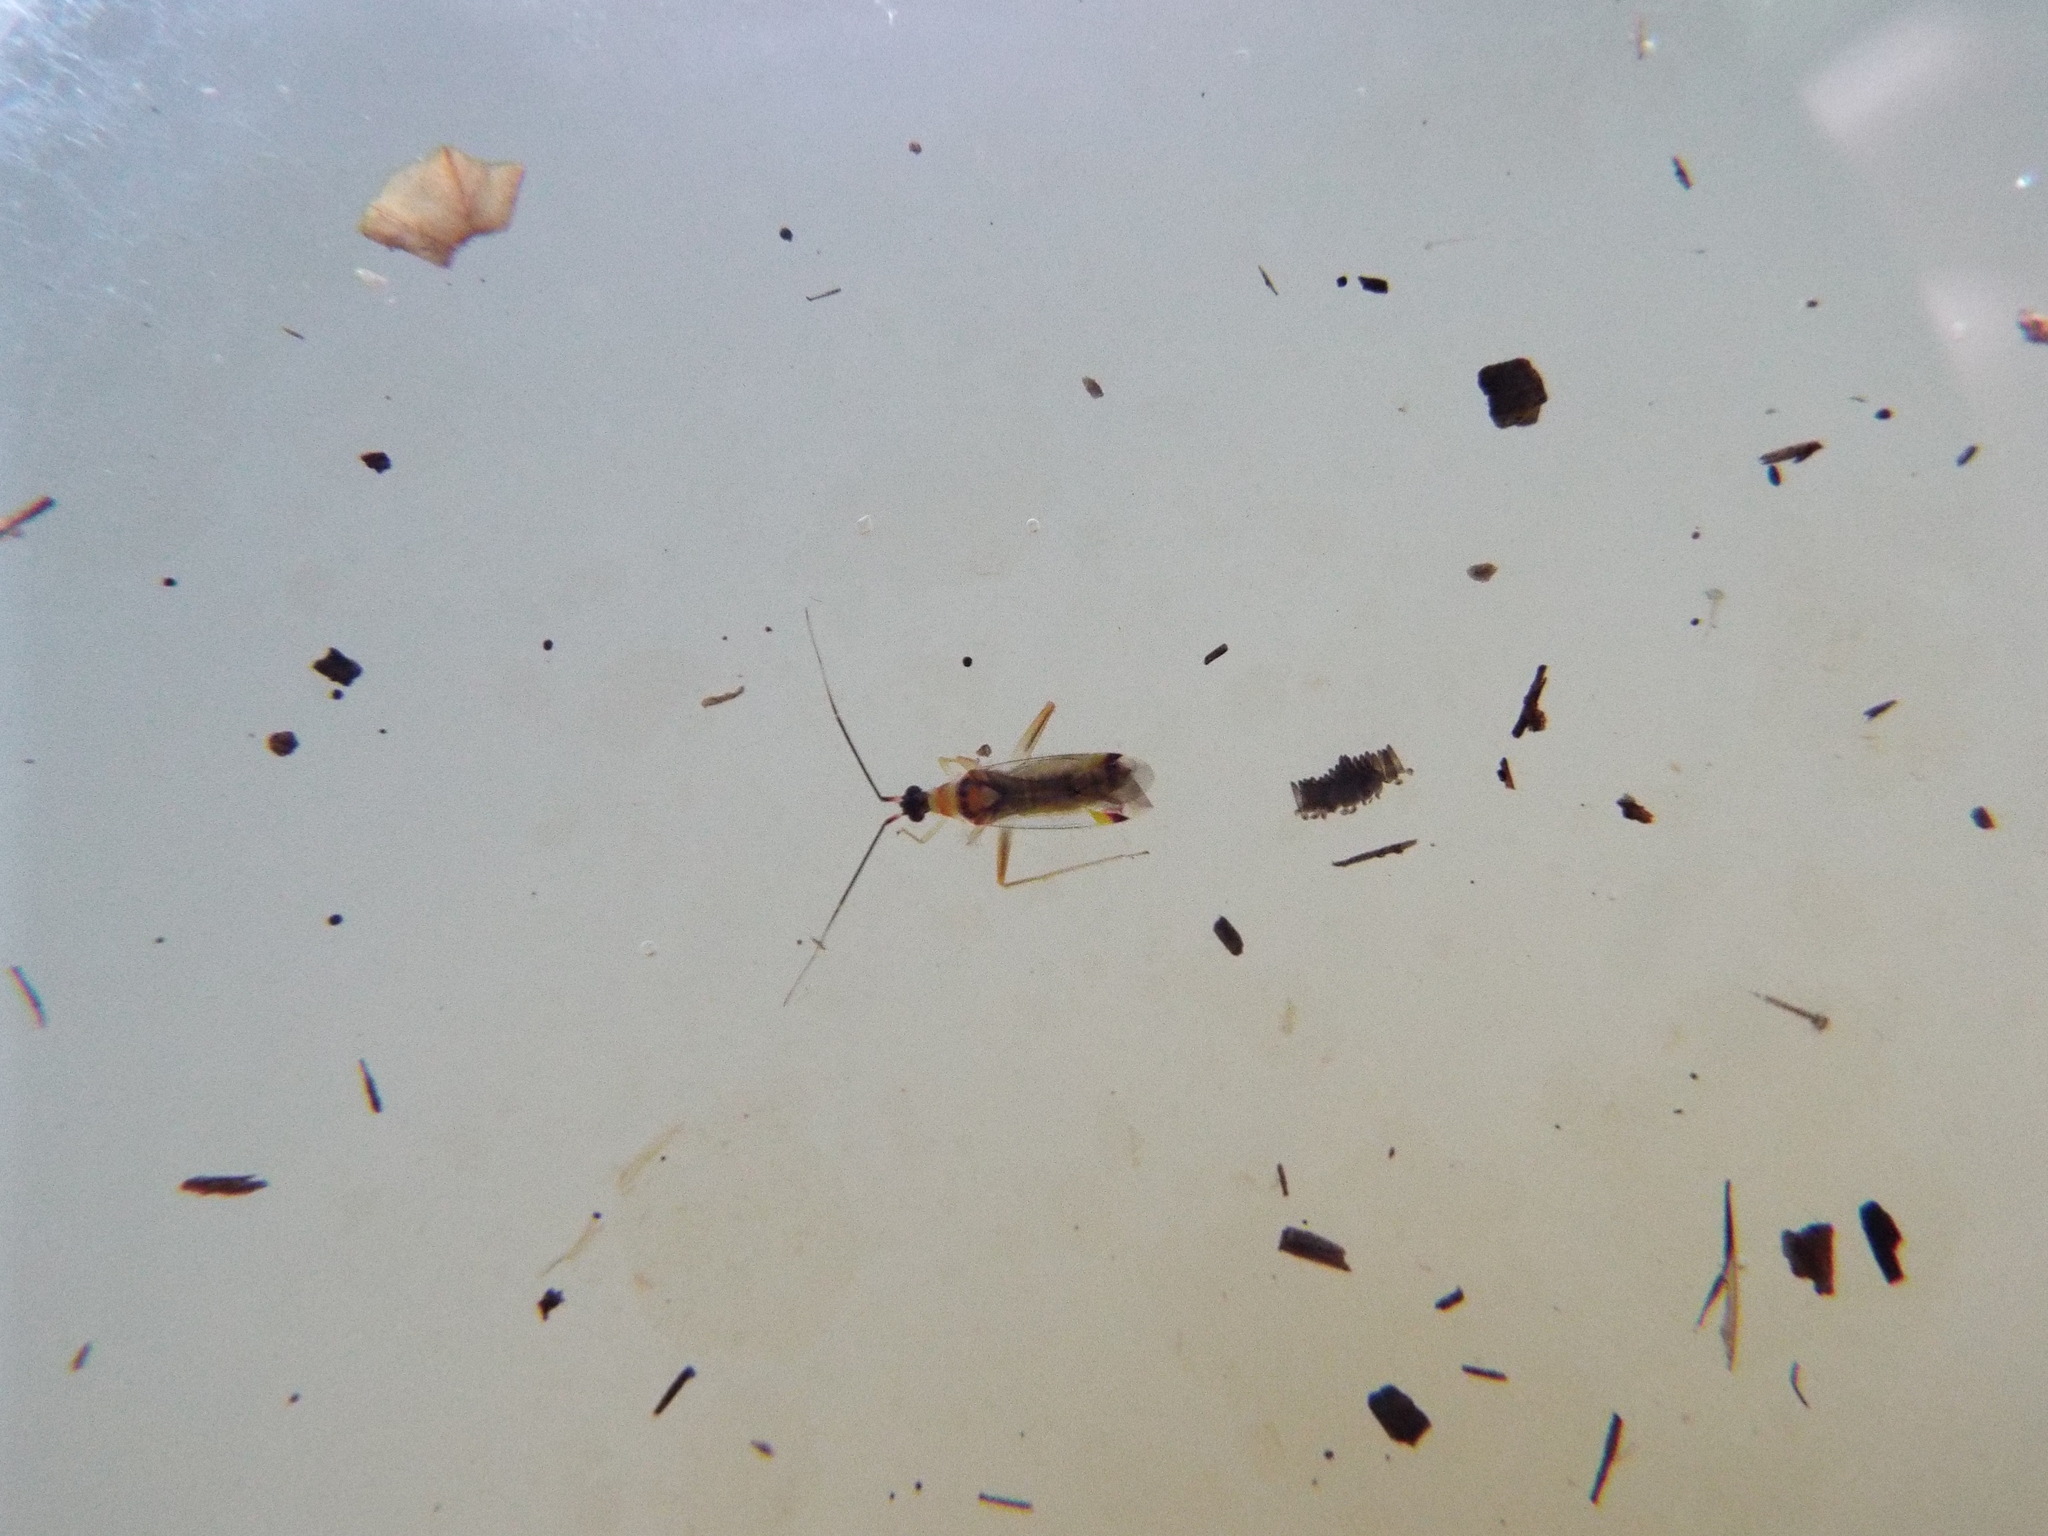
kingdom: Animalia
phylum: Arthropoda
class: Insecta
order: Hemiptera
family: Miridae
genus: Campyloneura
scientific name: Campyloneura virgula
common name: Predatory bug
